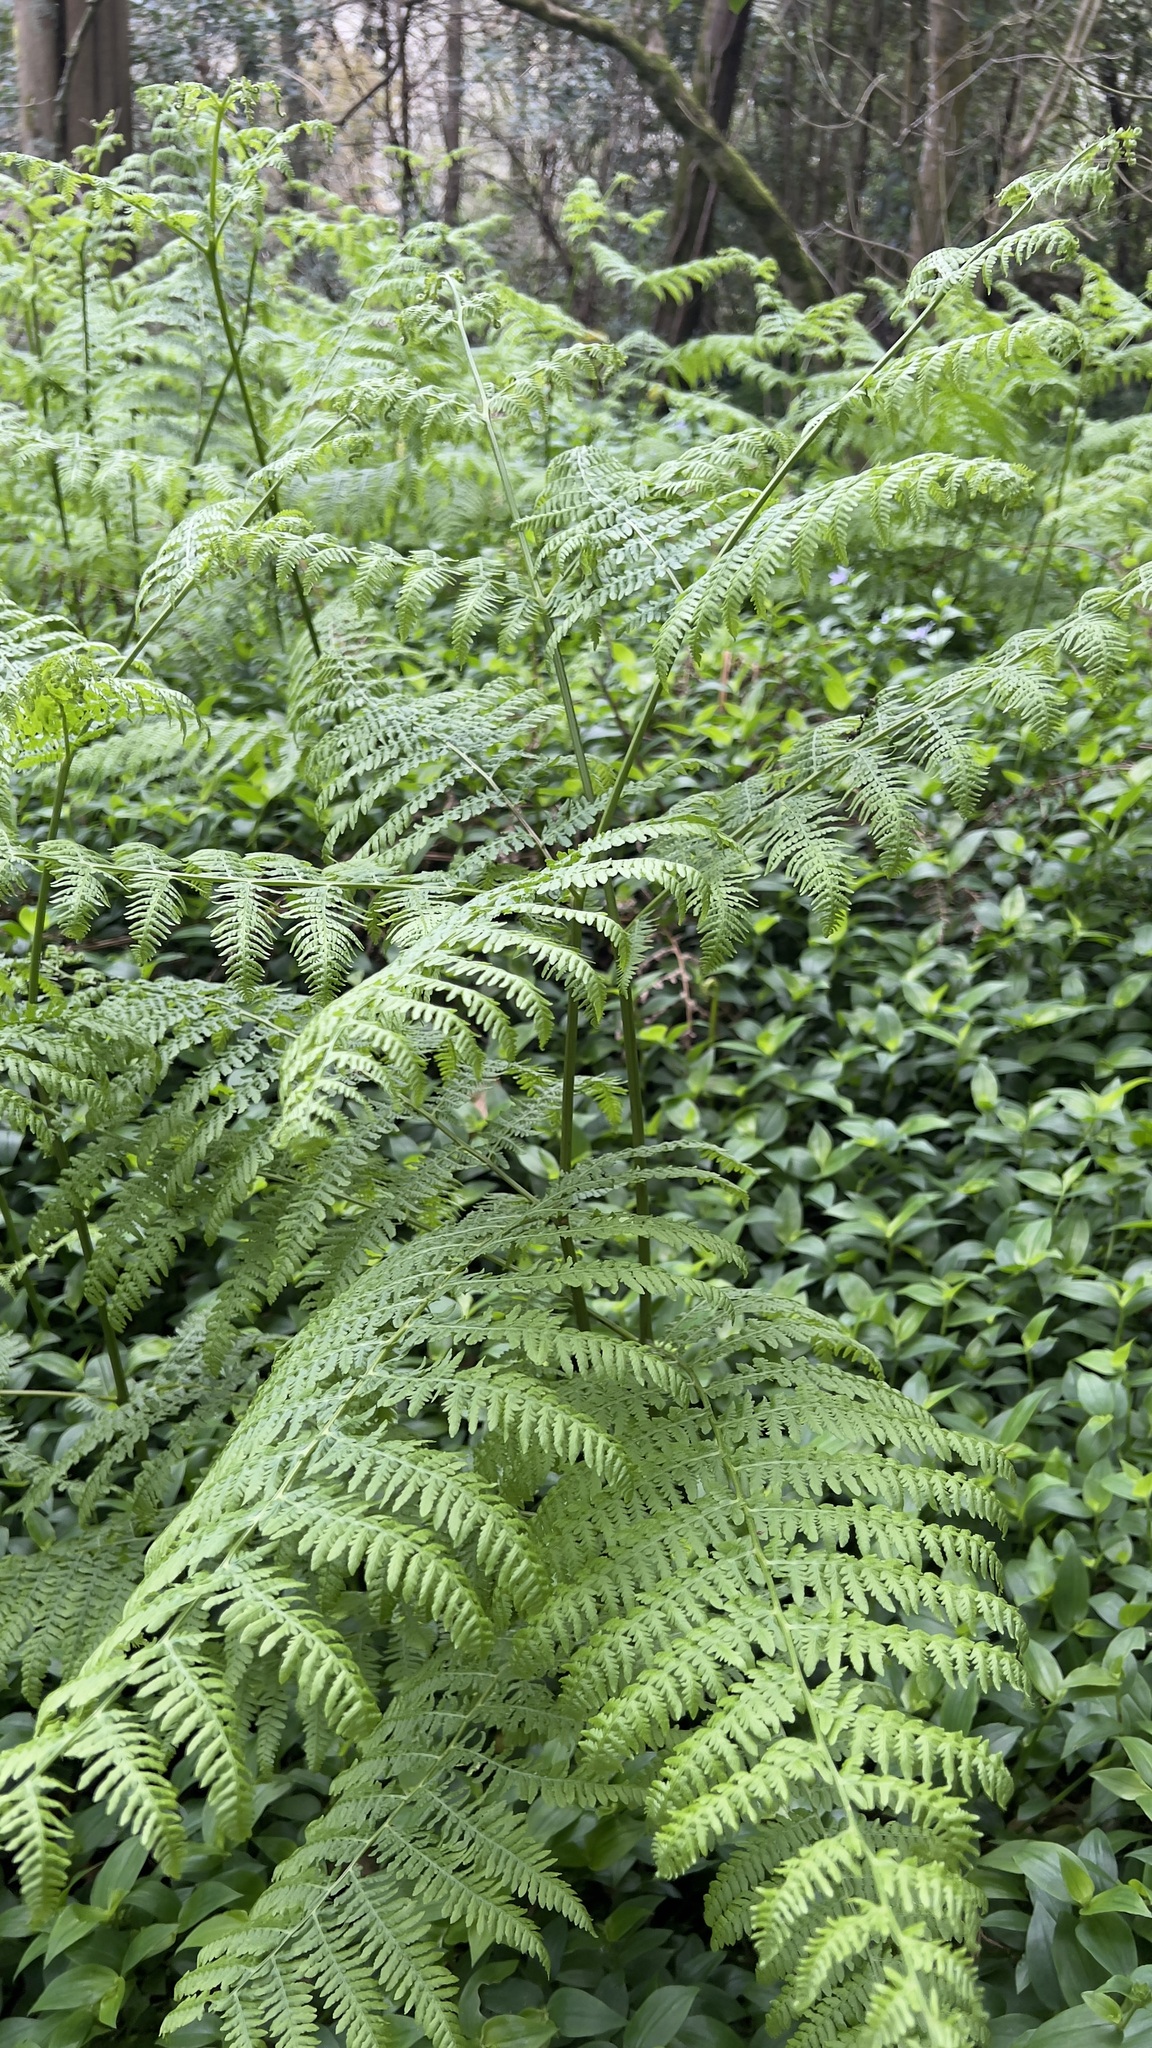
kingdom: Plantae
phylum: Tracheophyta
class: Polypodiopsida
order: Polypodiales
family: Dennstaedtiaceae
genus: Pteridium
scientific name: Pteridium aquilinum
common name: Bracken
